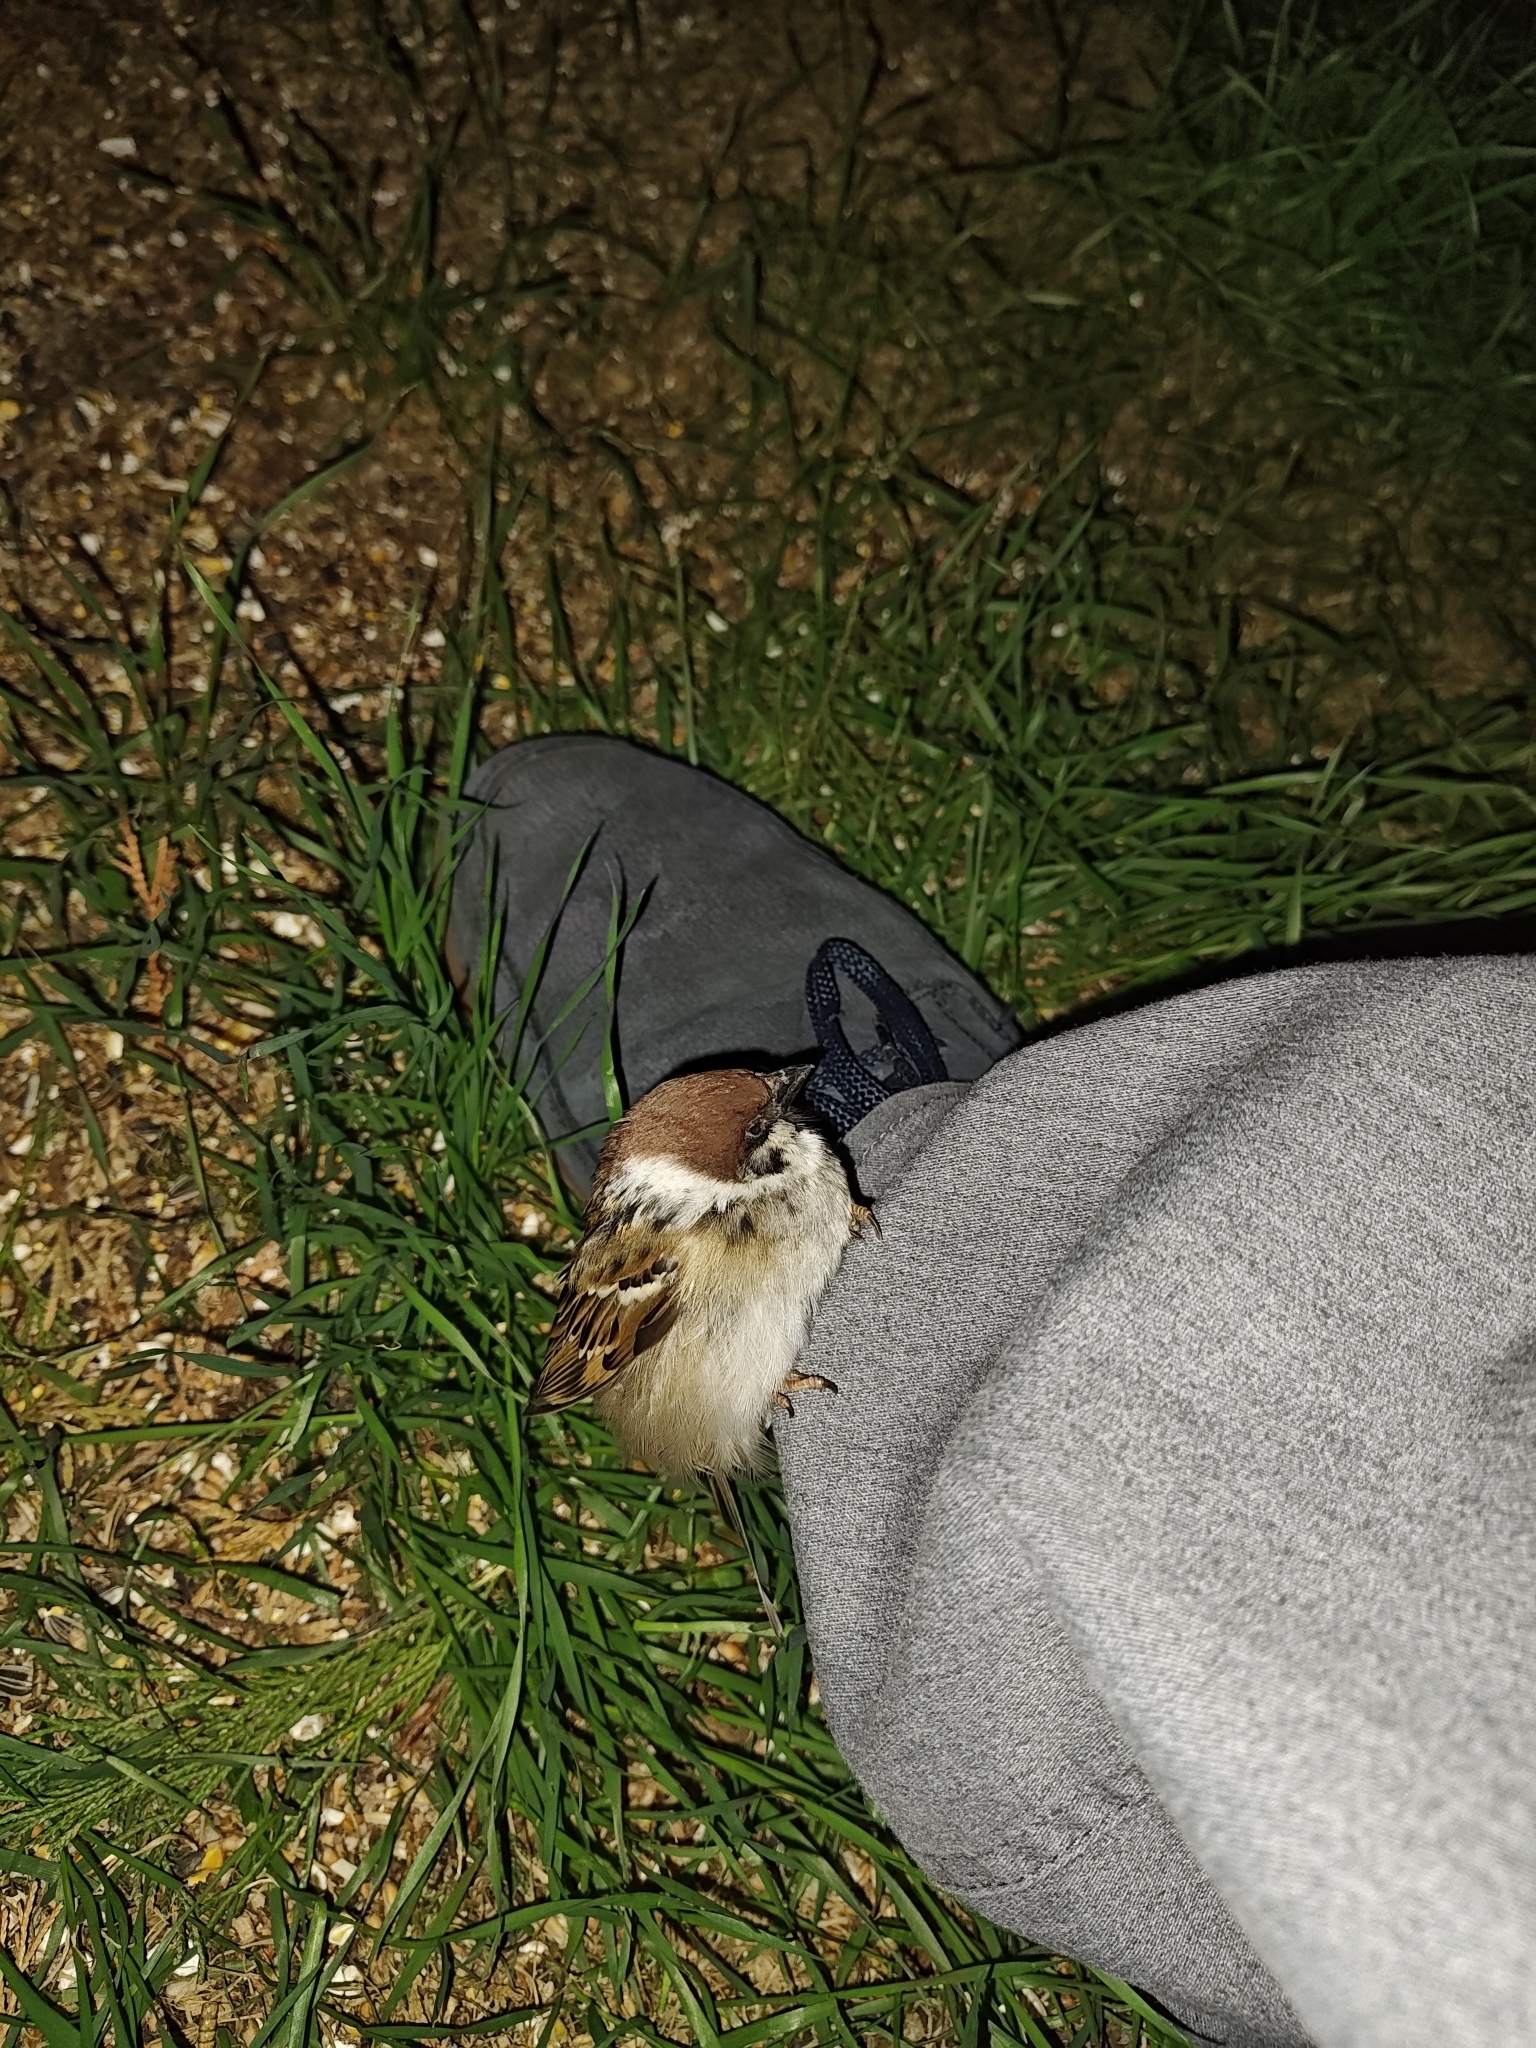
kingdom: Animalia
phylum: Chordata
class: Aves
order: Passeriformes
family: Passeridae
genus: Passer
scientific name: Passer montanus
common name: Eurasian tree sparrow
